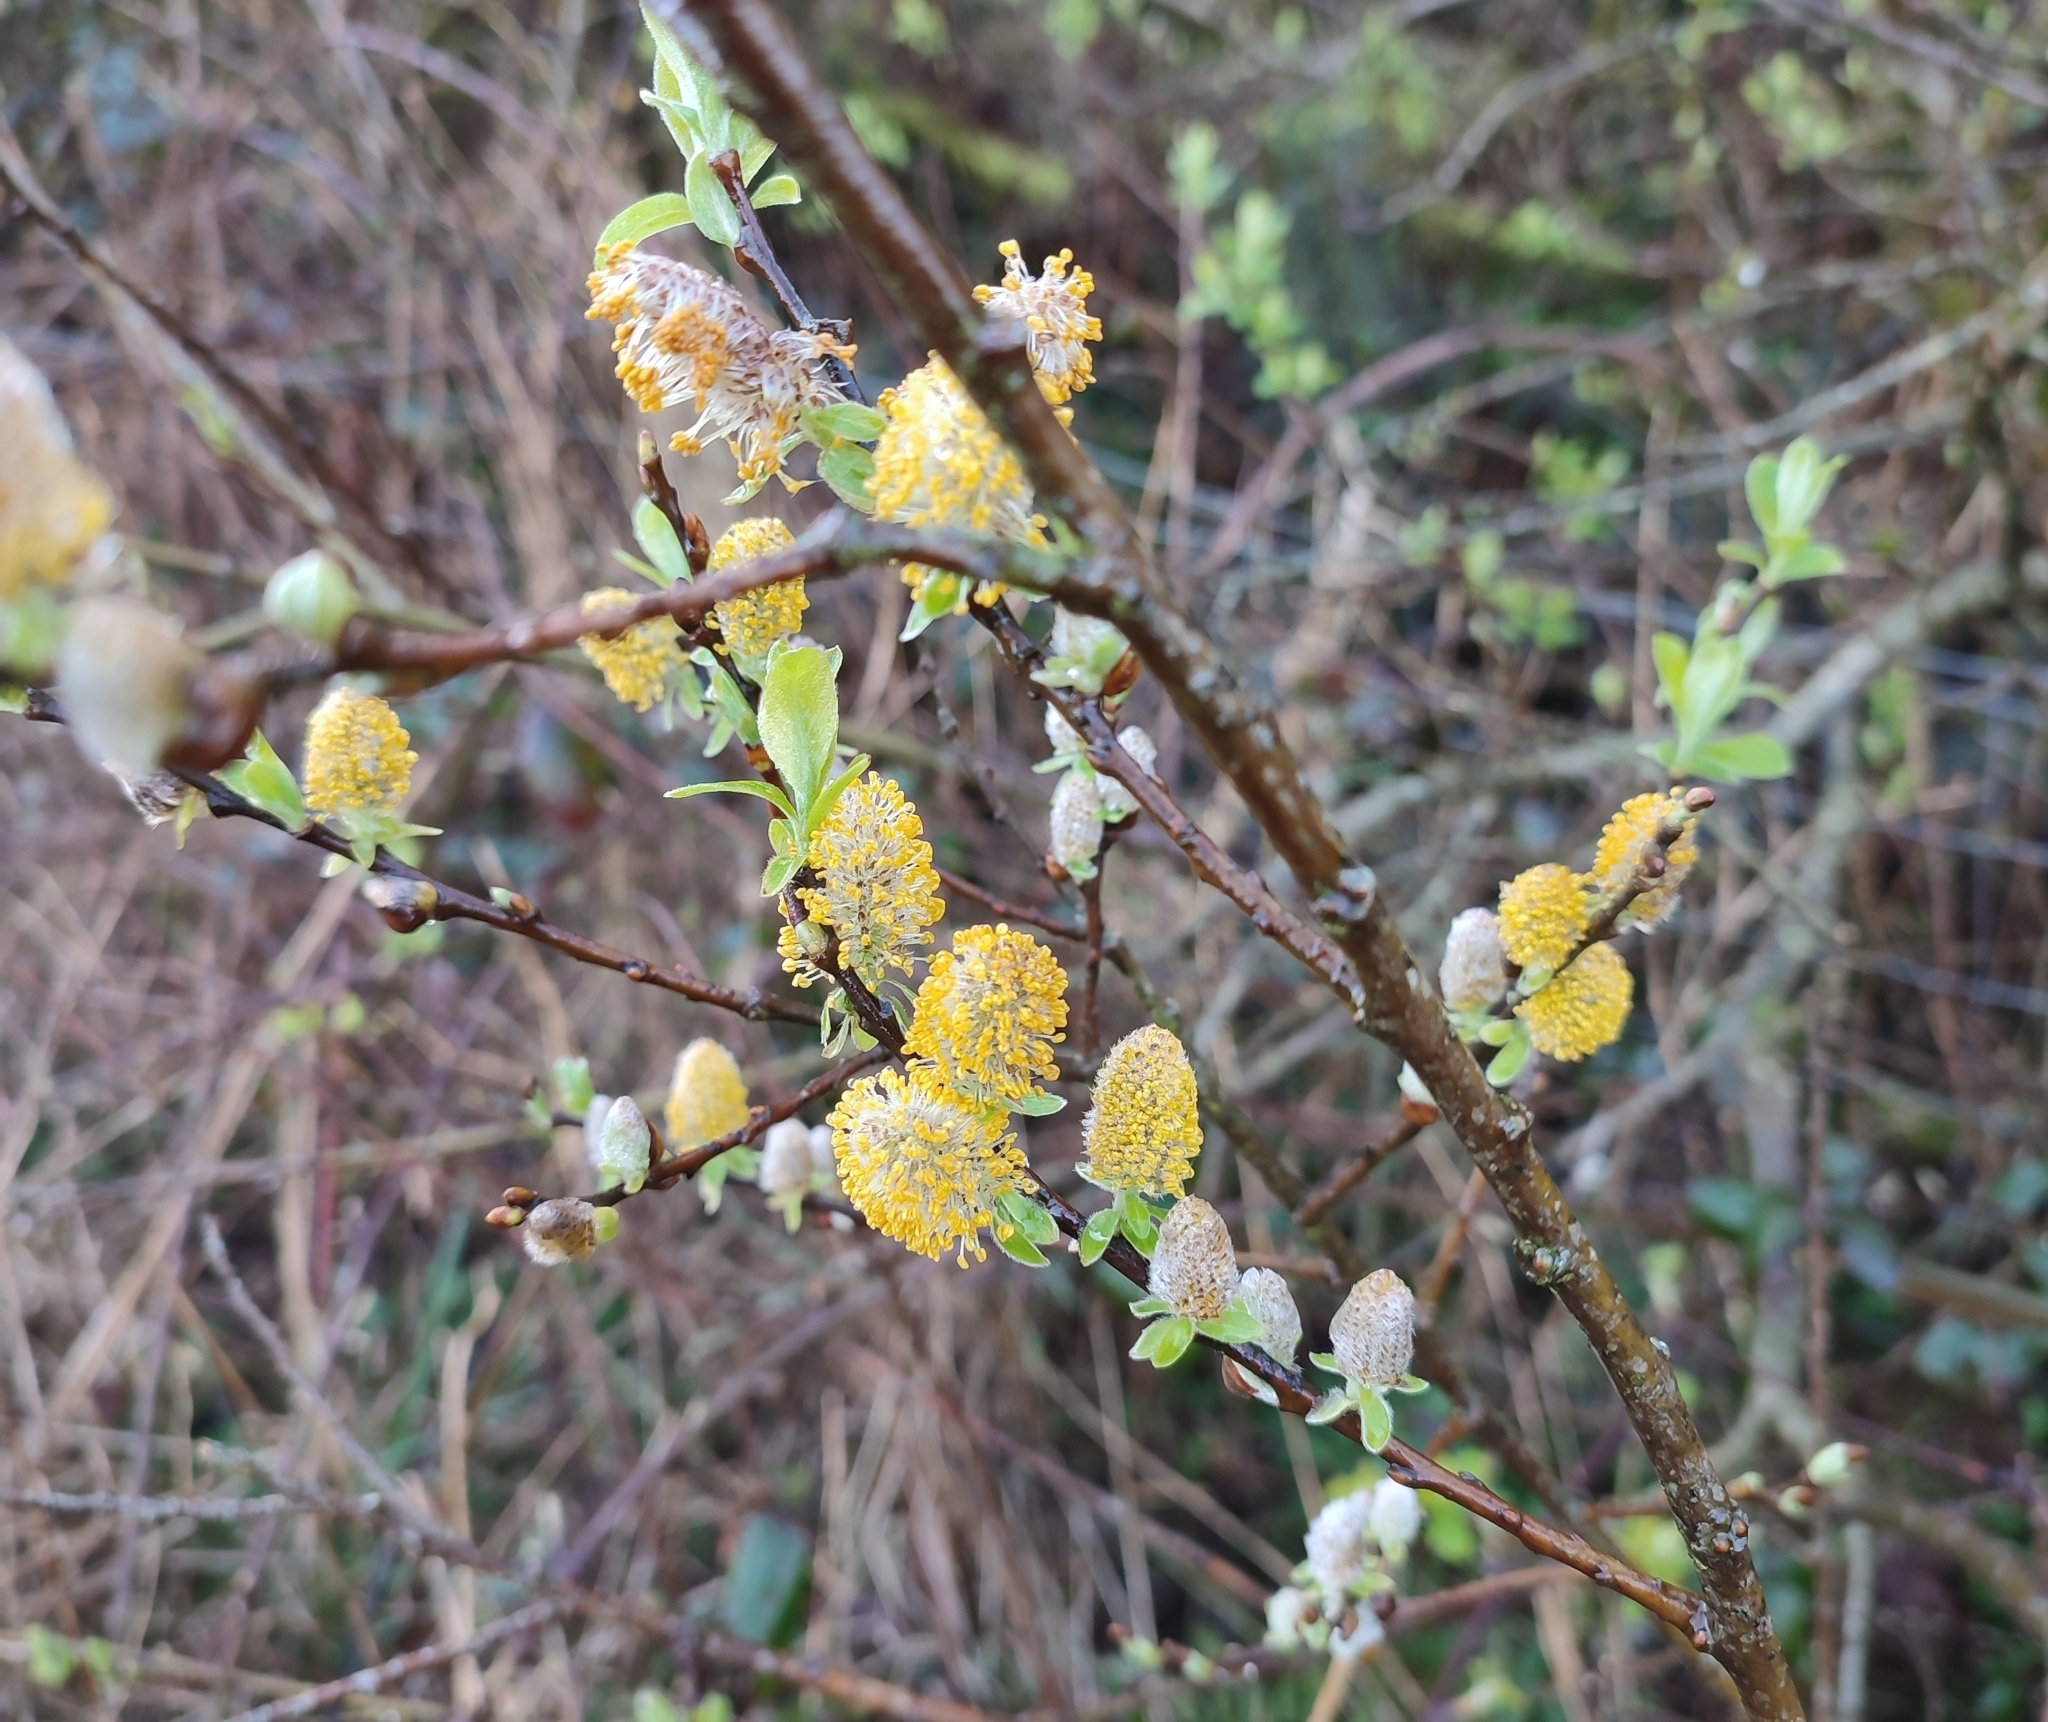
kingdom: Plantae
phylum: Tracheophyta
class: Magnoliopsida
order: Malpighiales
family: Salicaceae
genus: Salix
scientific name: Salix repens
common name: Creeping willow
